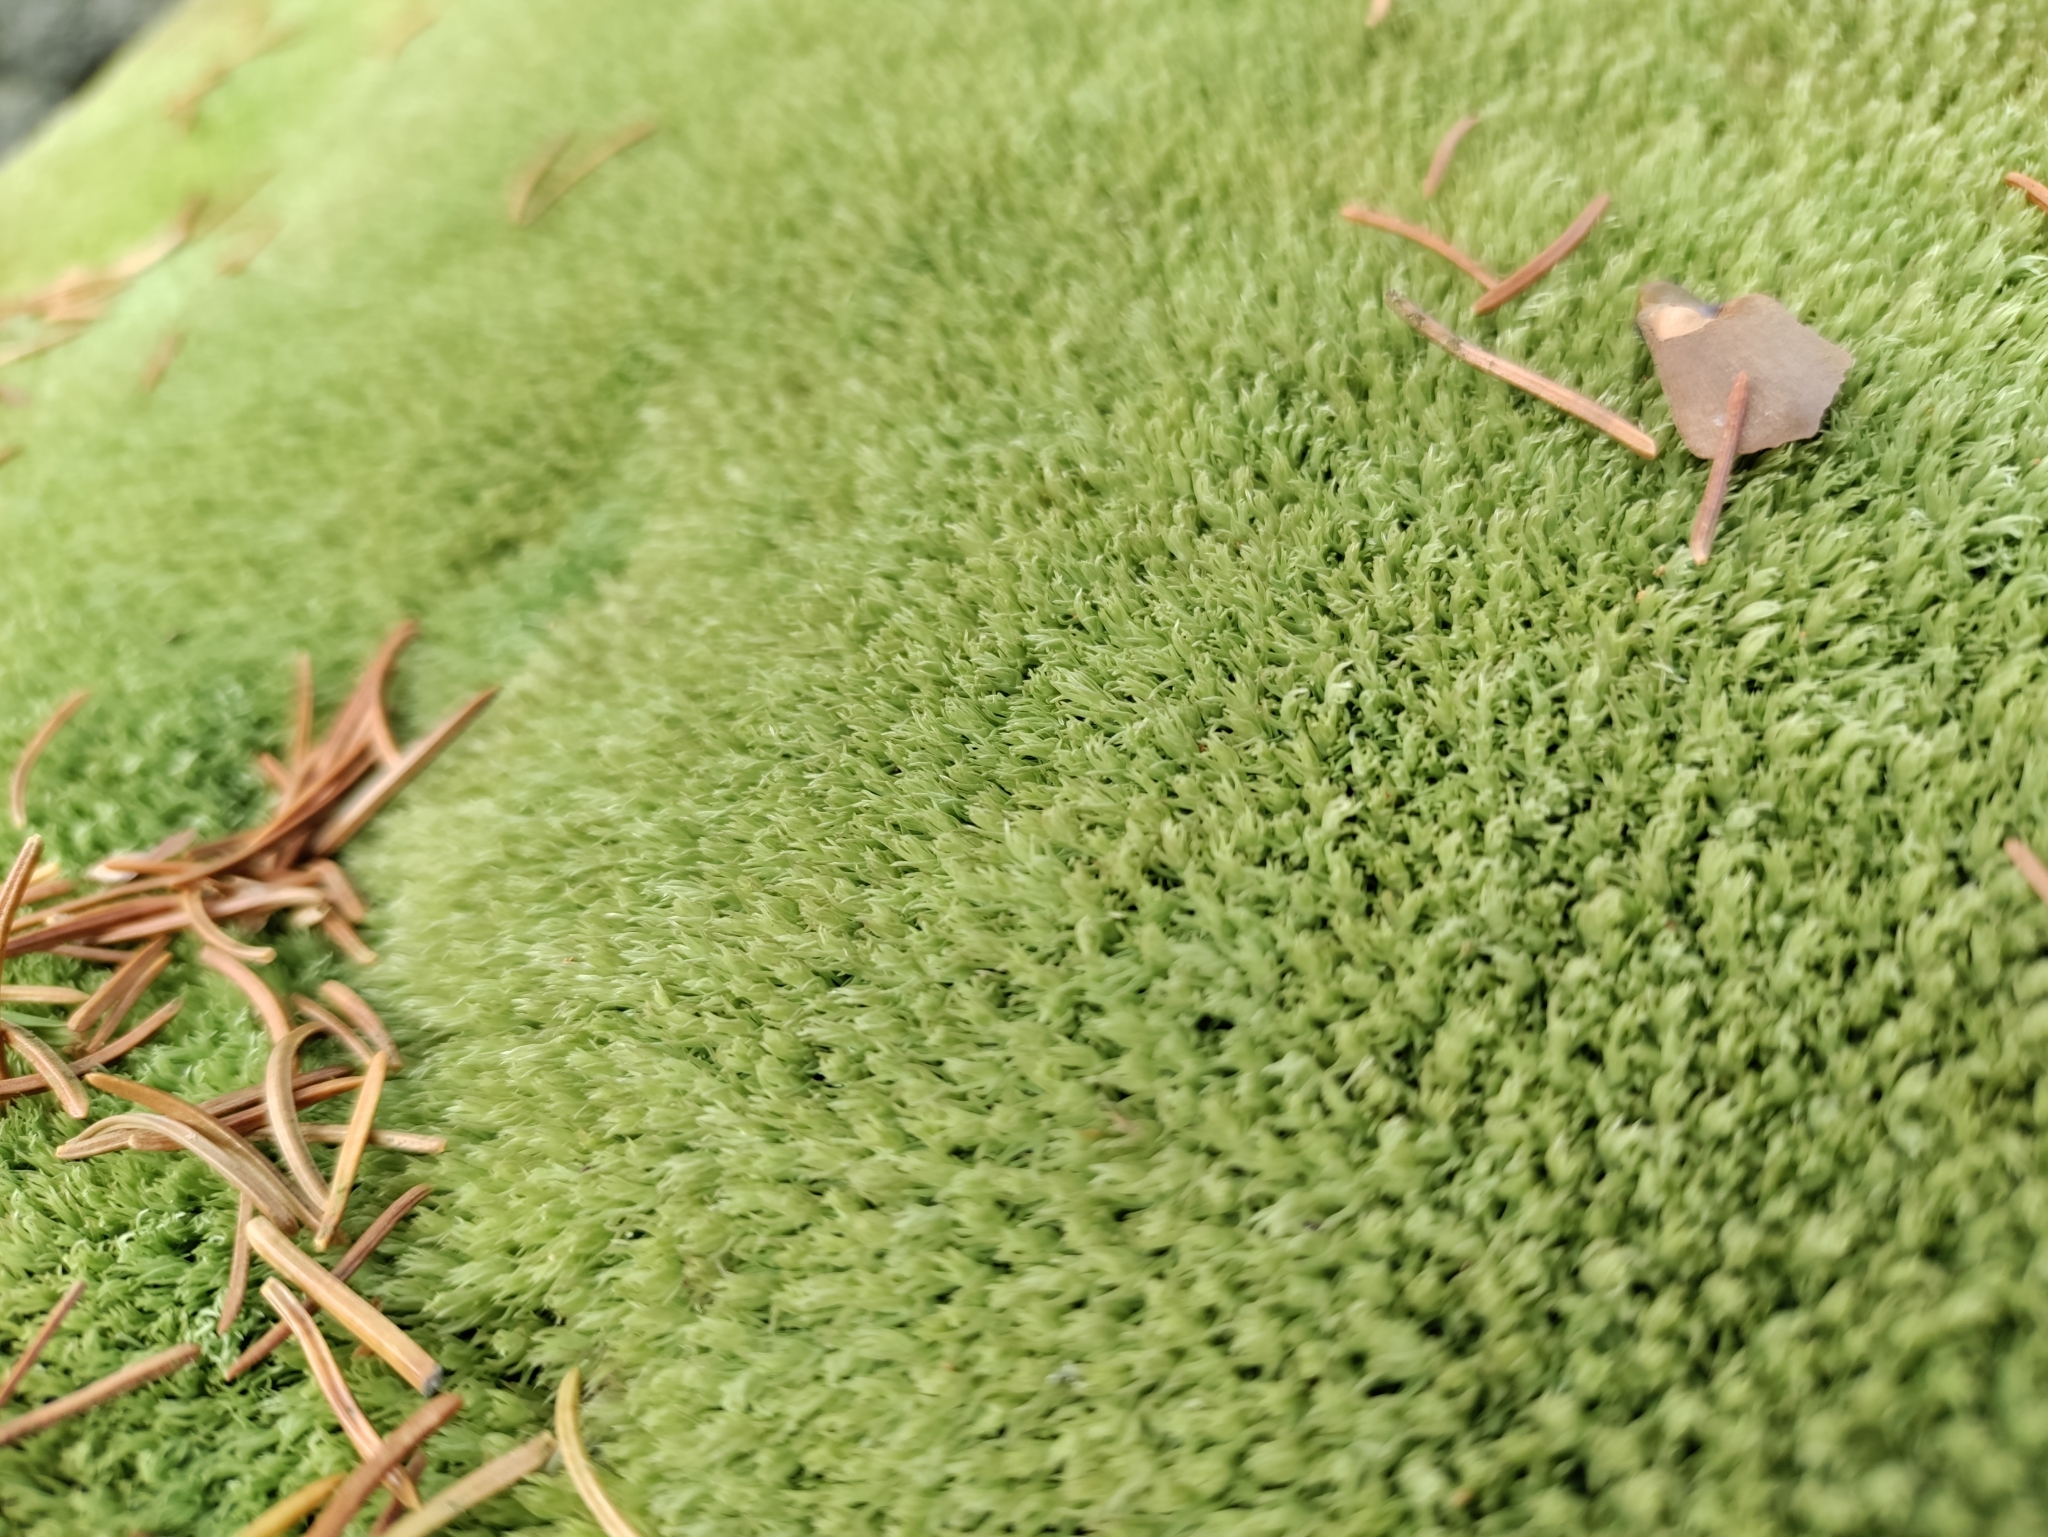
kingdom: Plantae
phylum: Bryophyta
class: Bryopsida
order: Dicranales
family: Leucobryaceae
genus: Leucobryum
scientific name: Leucobryum glaucum
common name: Large white-moss
